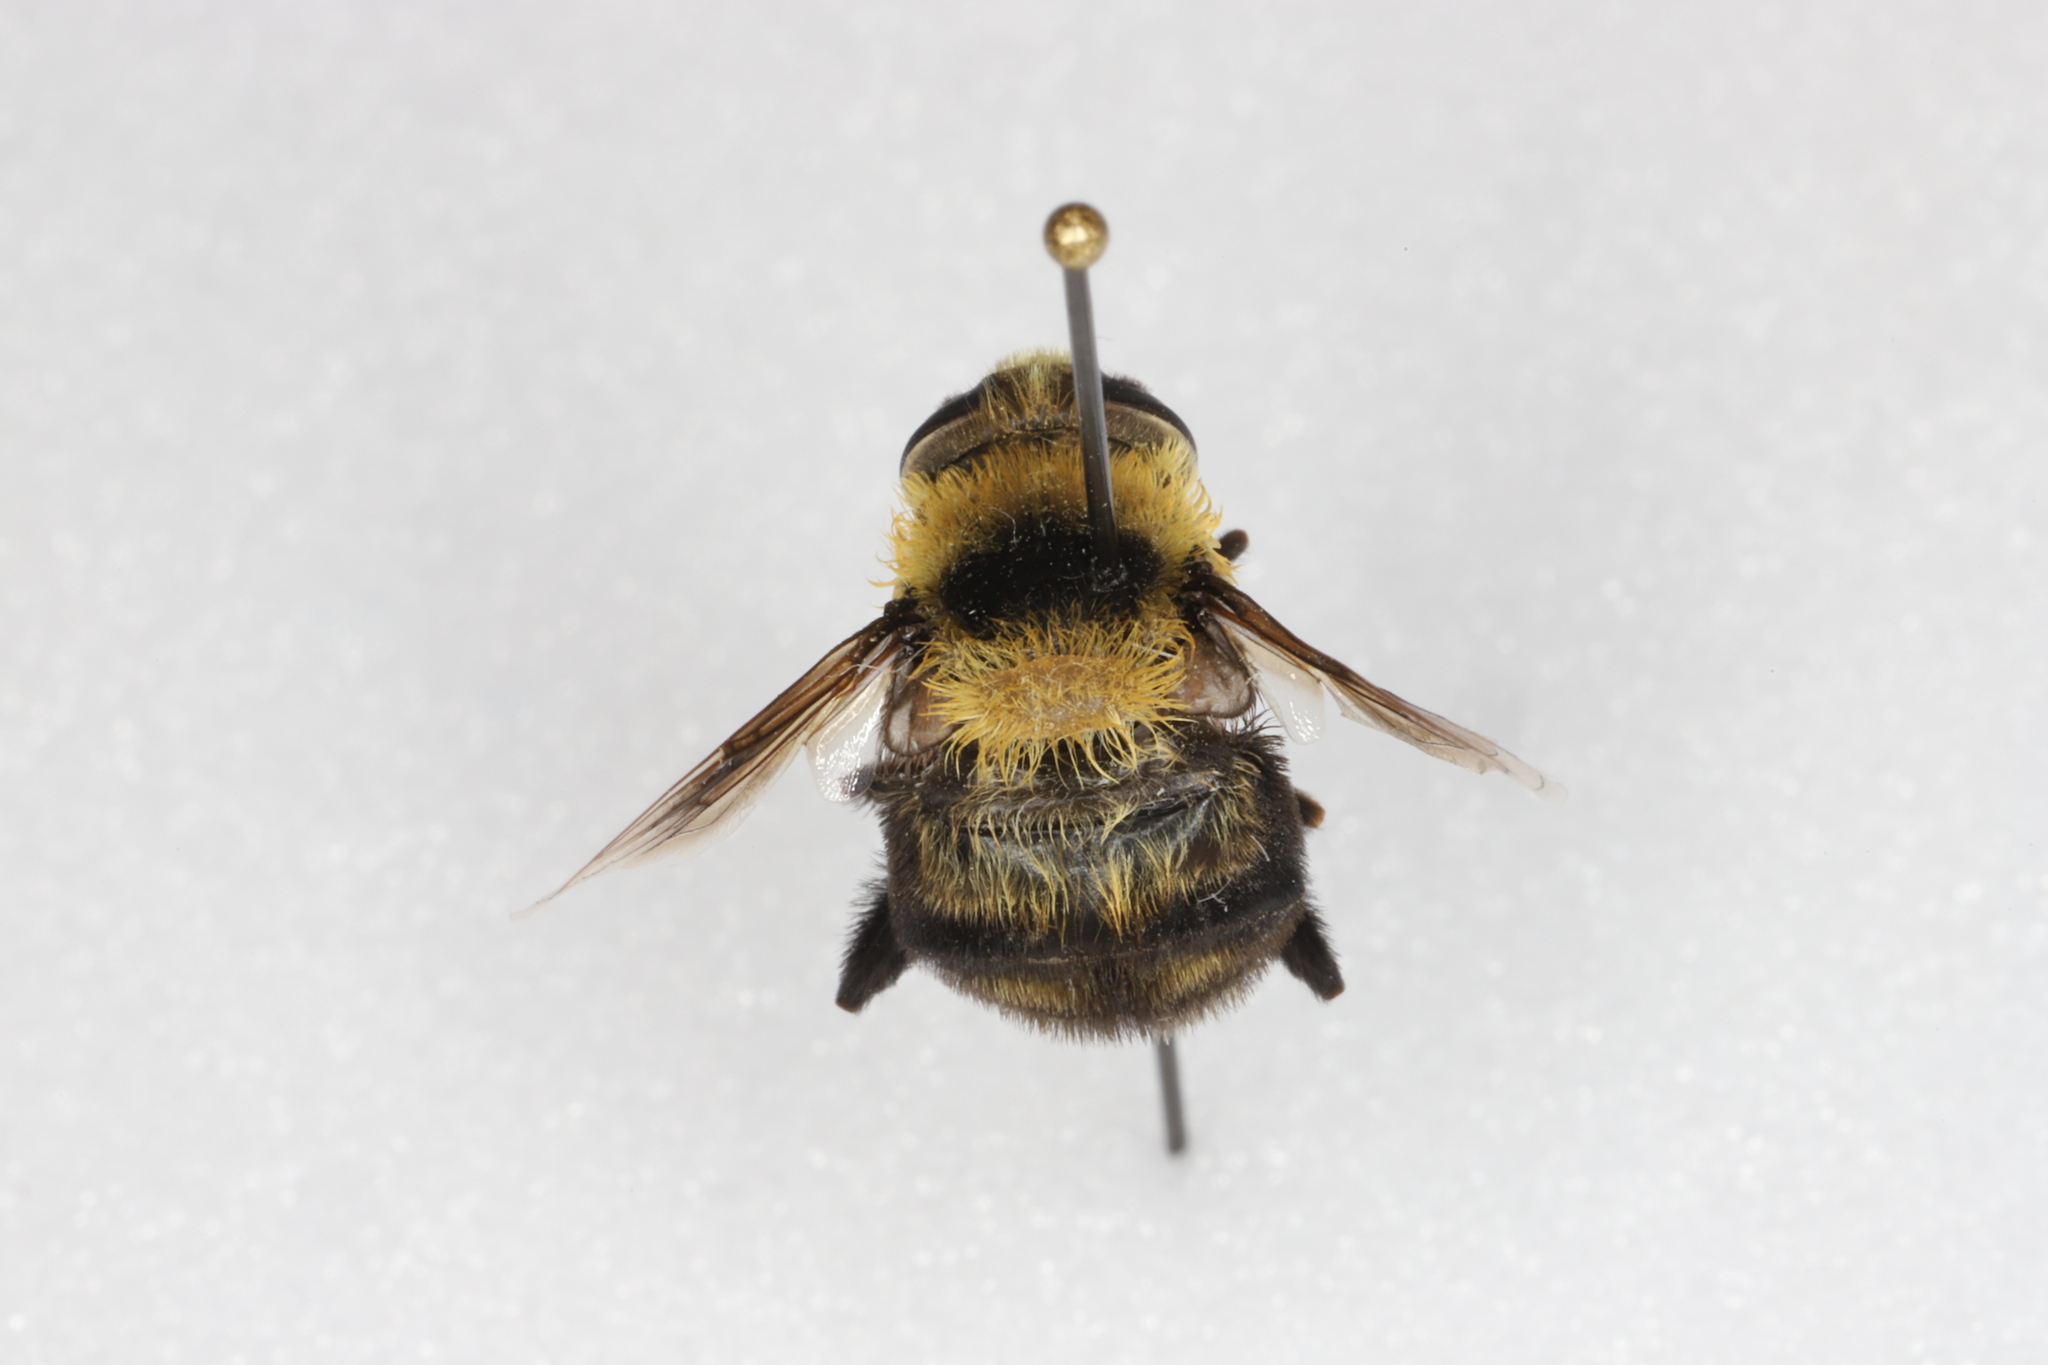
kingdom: Animalia
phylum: Arthropoda
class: Insecta
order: Diptera
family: Syrphidae
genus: Eristalis
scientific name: Eristalis flavipes
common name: Orange-legged drone fly
